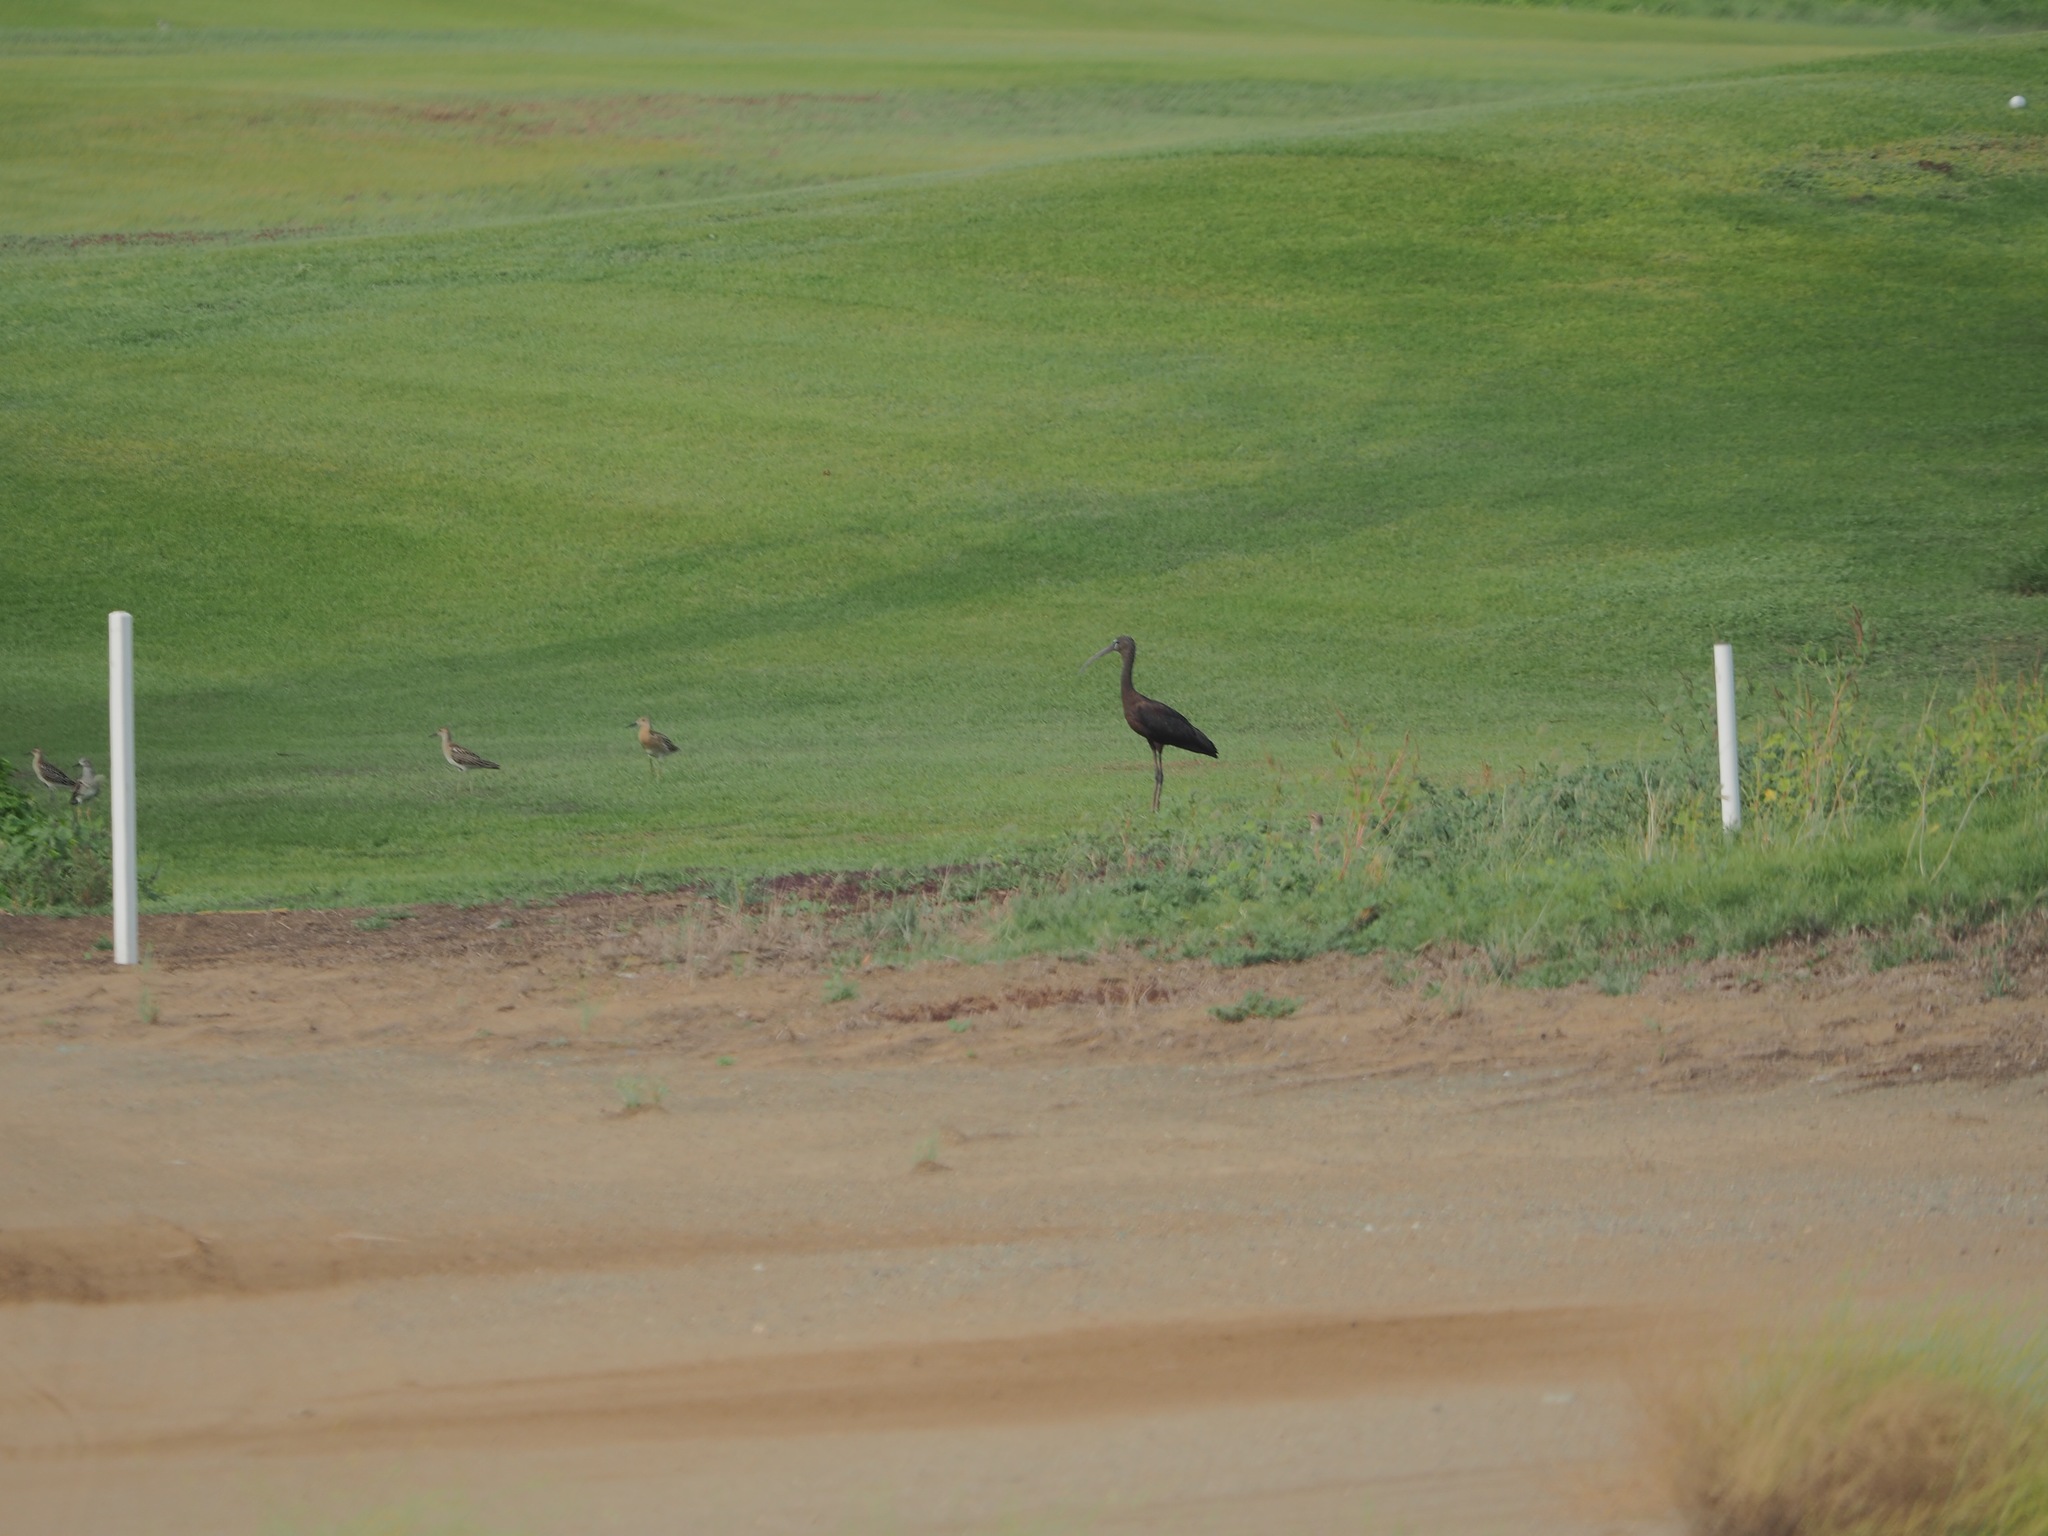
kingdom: Animalia
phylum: Chordata
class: Aves
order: Pelecaniformes
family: Threskiornithidae
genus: Plegadis
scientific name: Plegadis falcinellus
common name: Glossy ibis
